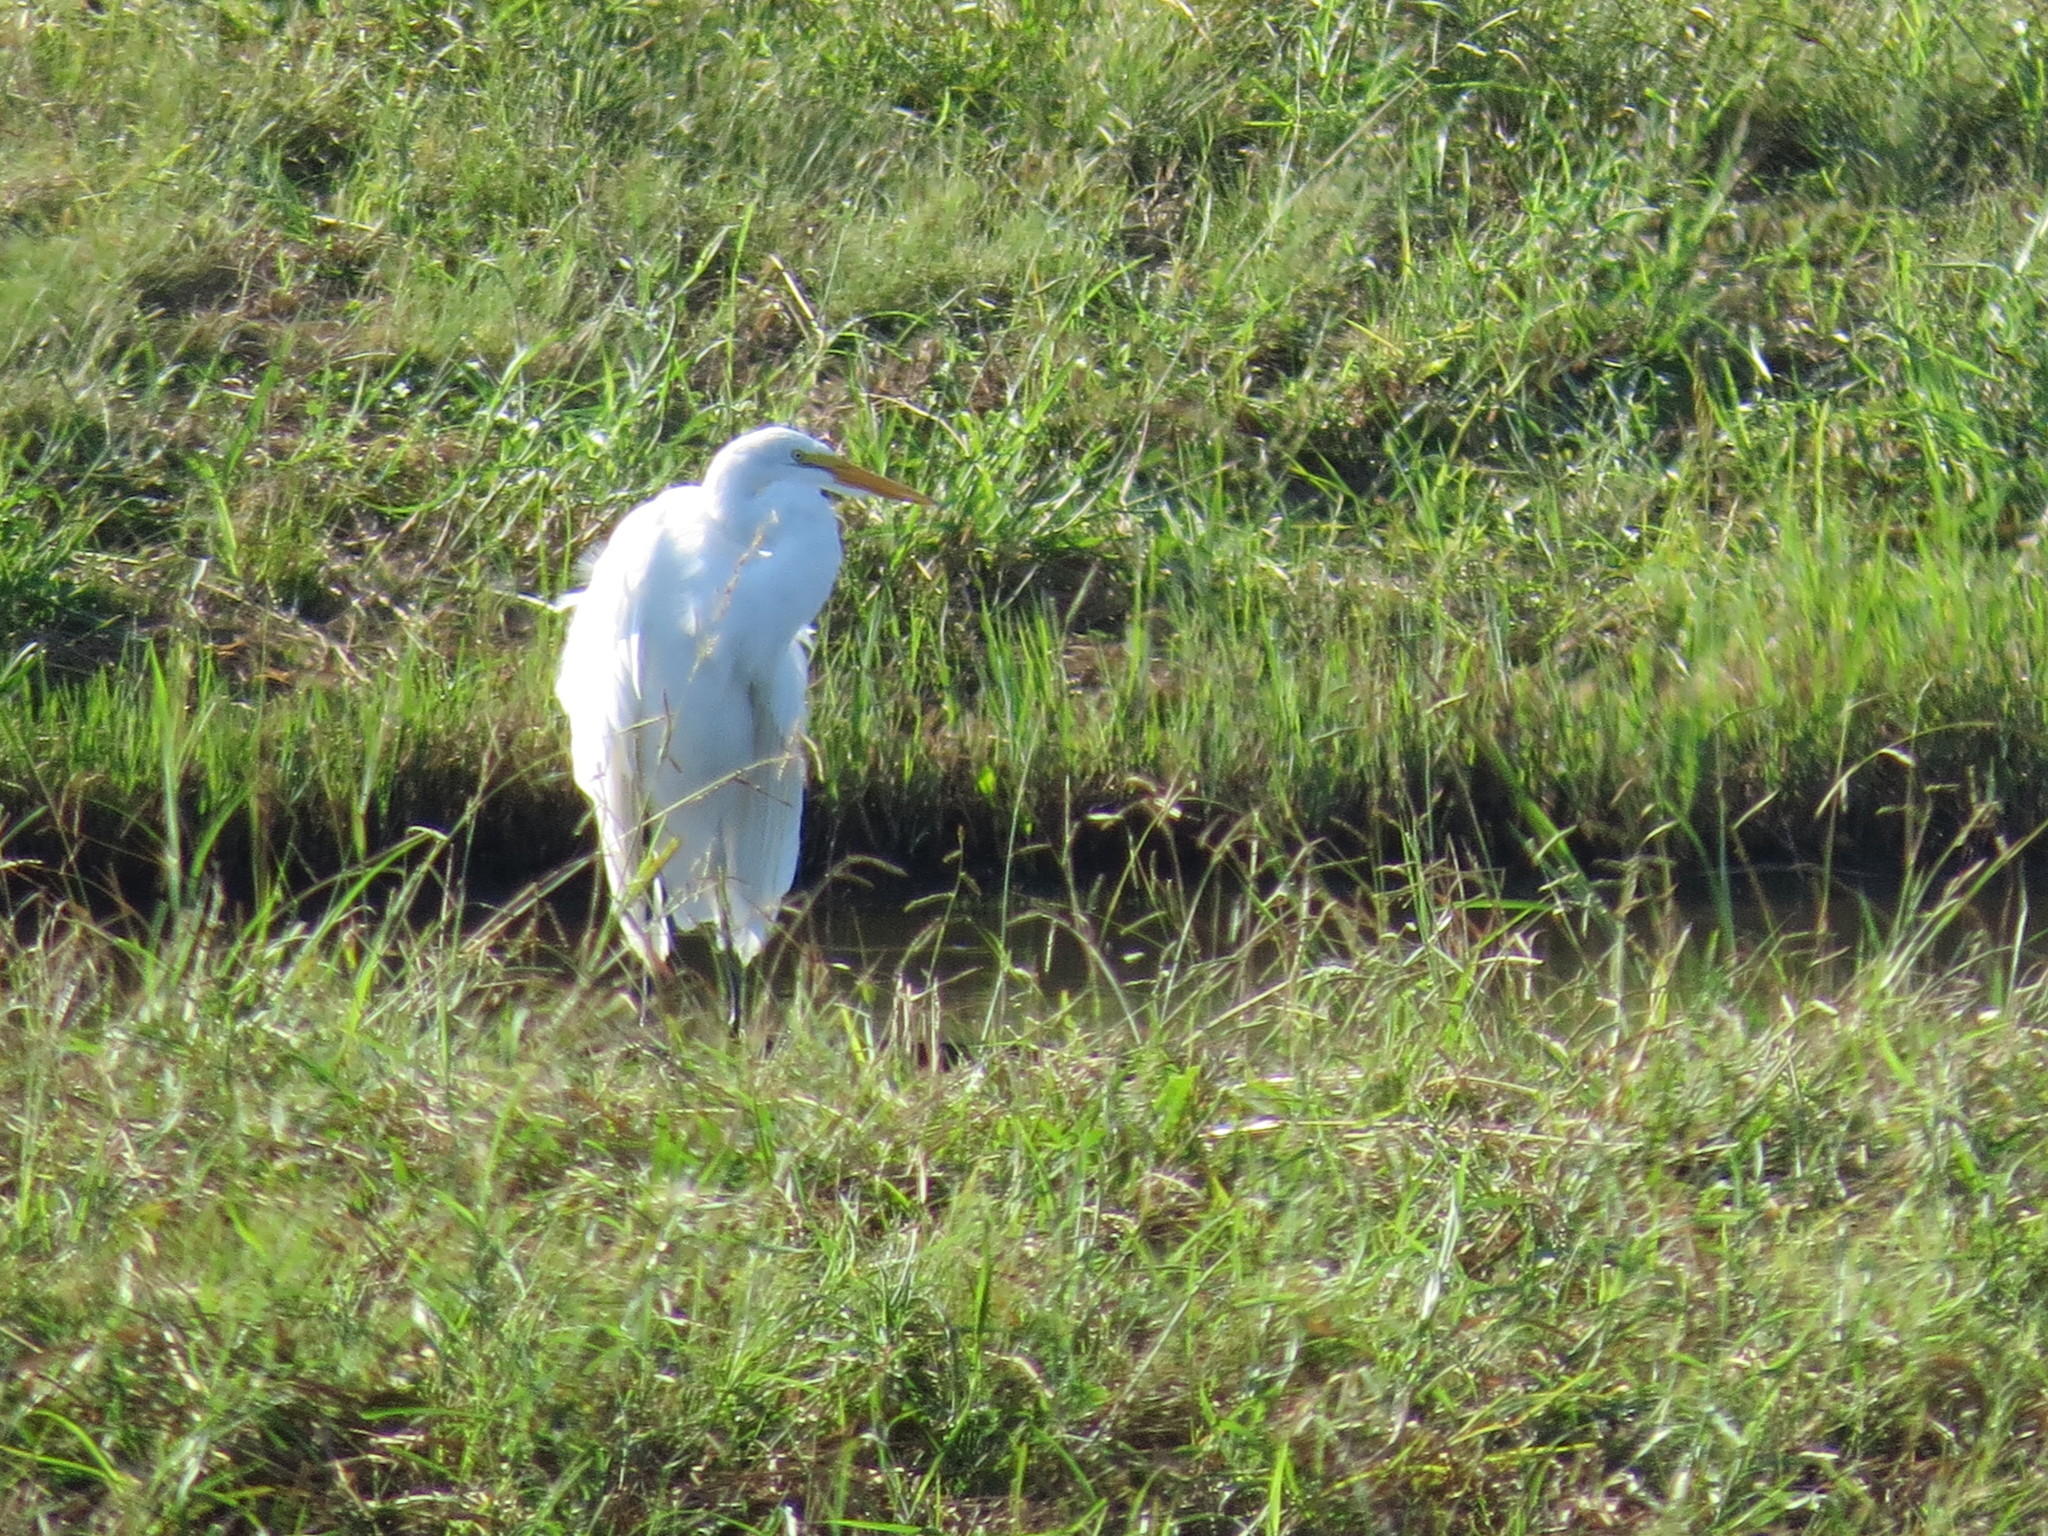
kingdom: Animalia
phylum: Chordata
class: Aves
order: Pelecaniformes
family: Ardeidae
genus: Ardea
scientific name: Ardea alba
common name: Great egret
